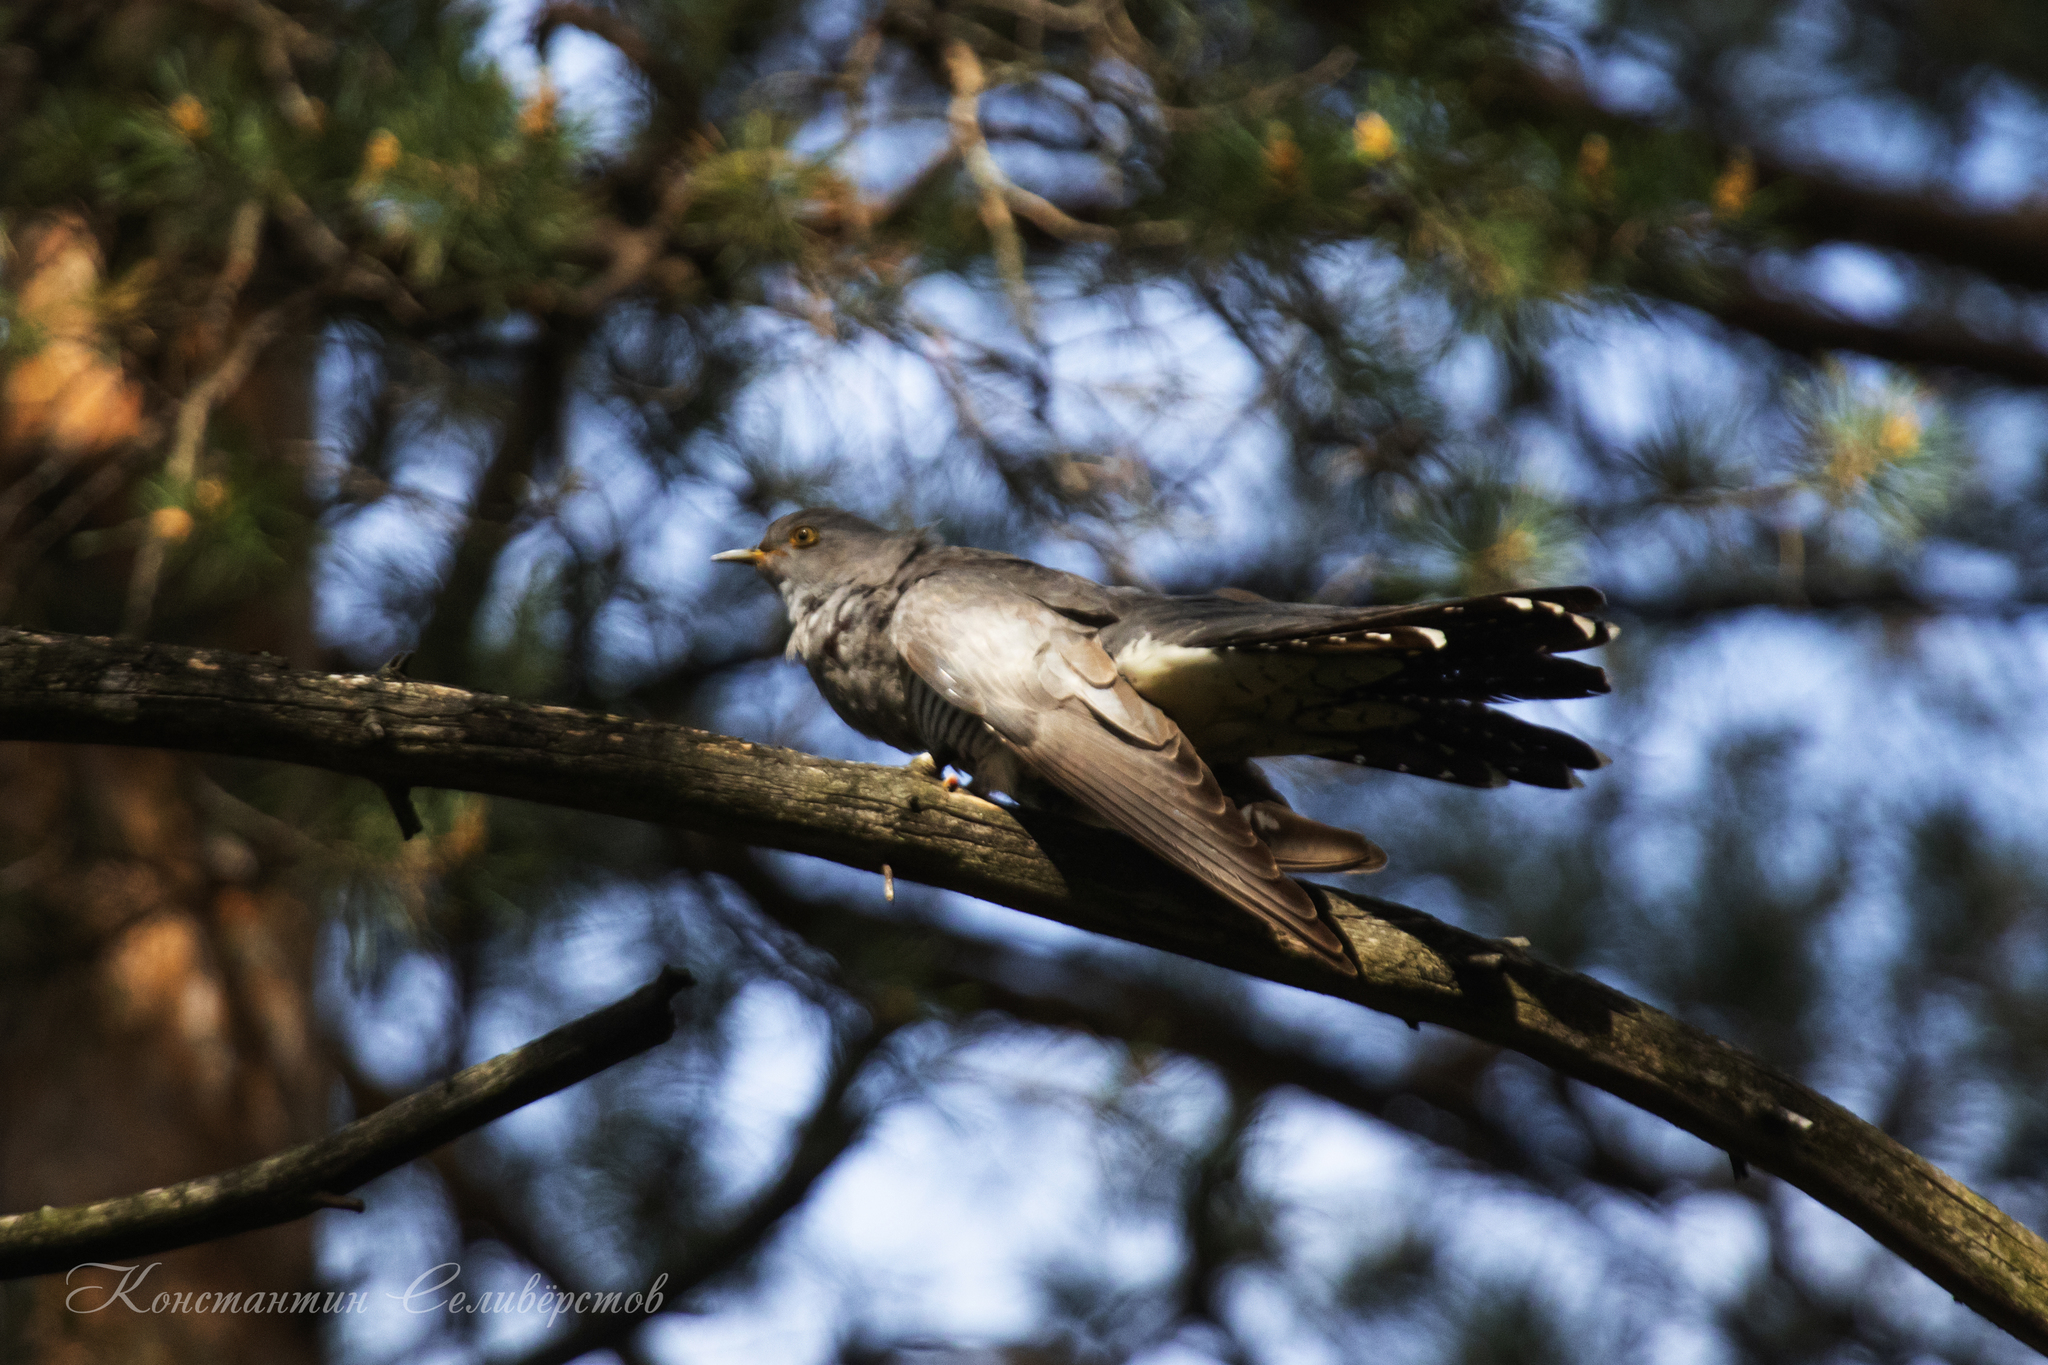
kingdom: Animalia
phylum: Chordata
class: Aves
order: Cuculiformes
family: Cuculidae
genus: Cuculus
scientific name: Cuculus canorus
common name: Common cuckoo
